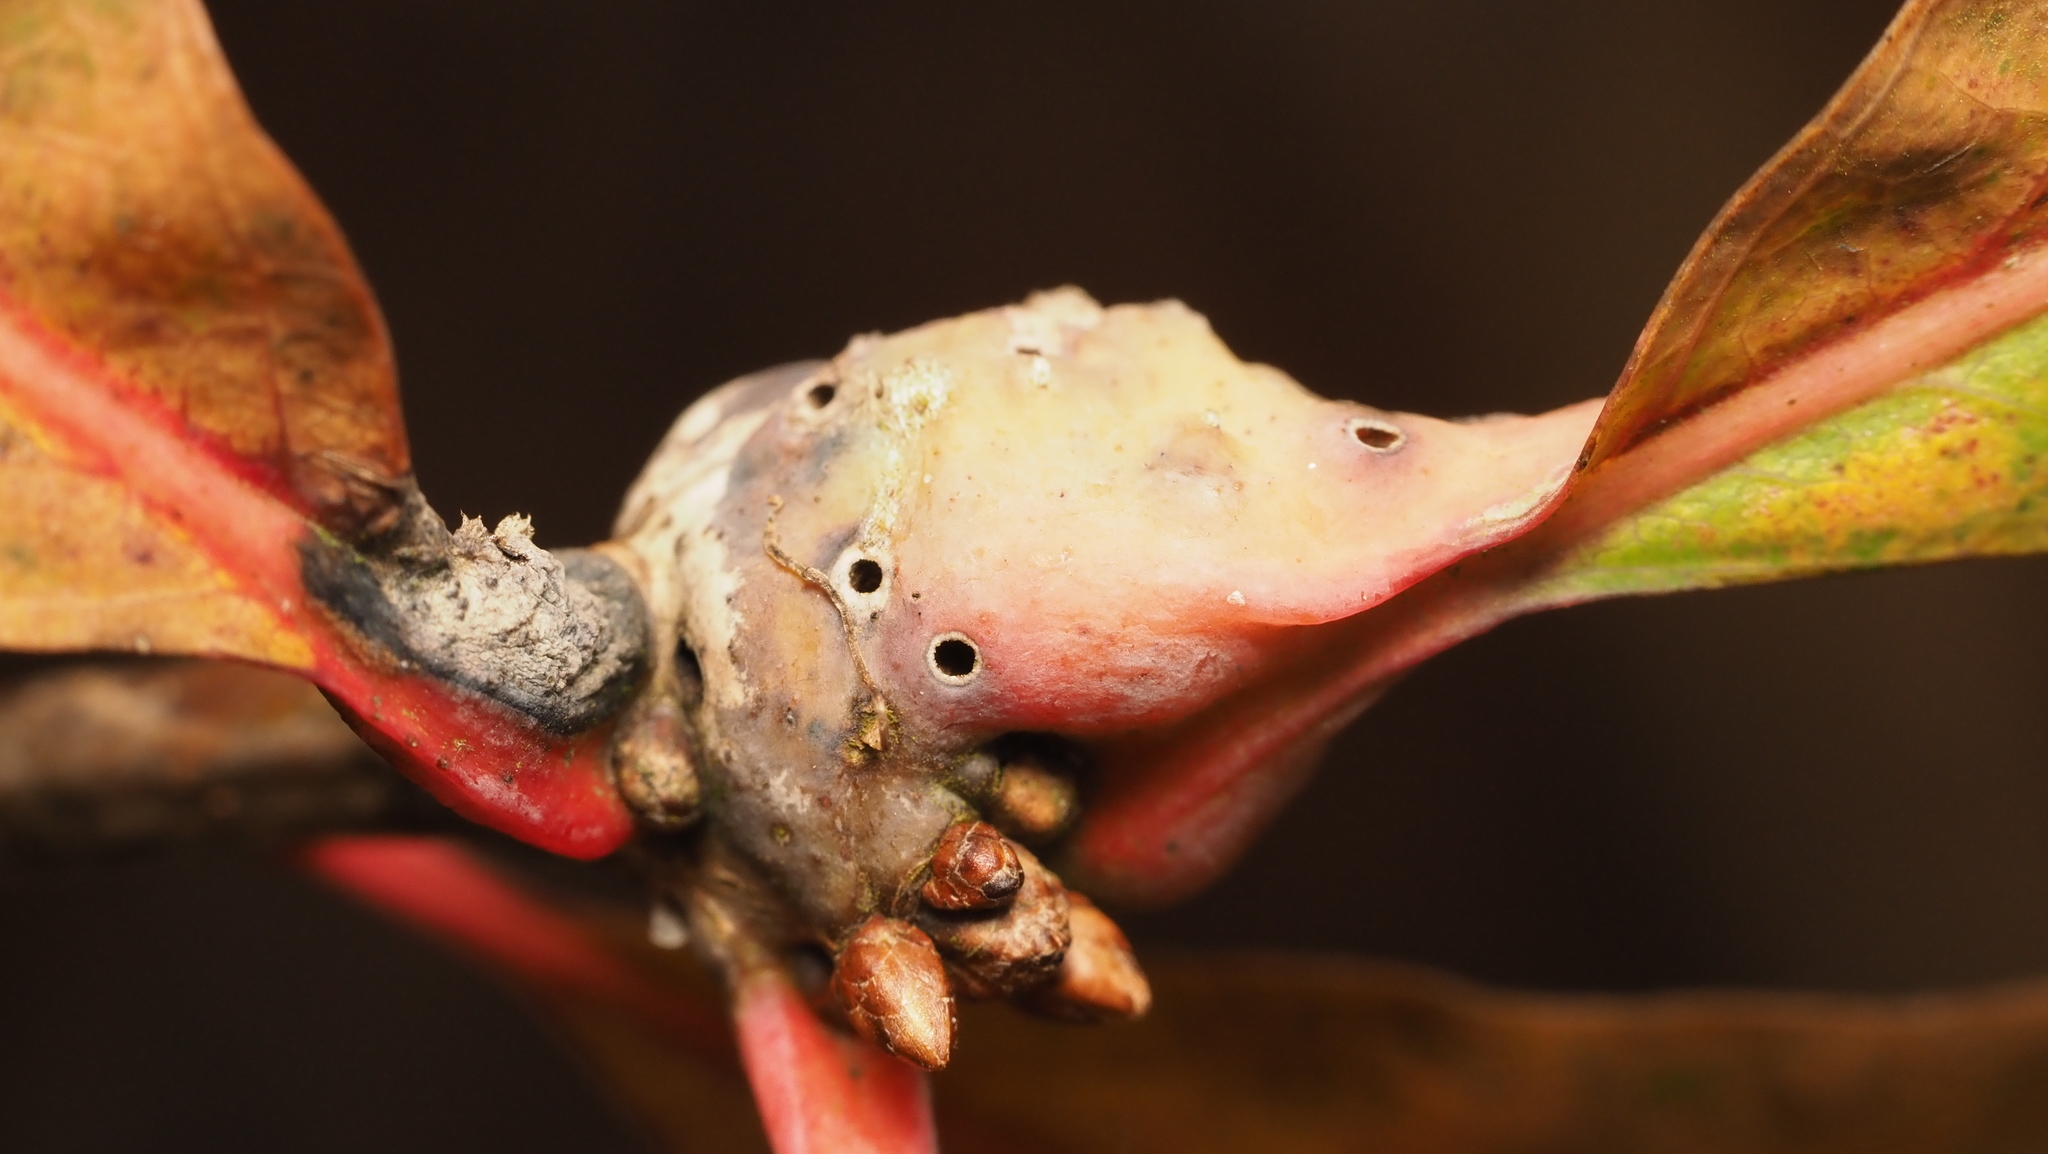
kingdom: Animalia
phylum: Arthropoda
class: Insecta
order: Hymenoptera
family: Cynipidae
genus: Andricus
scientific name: Andricus
